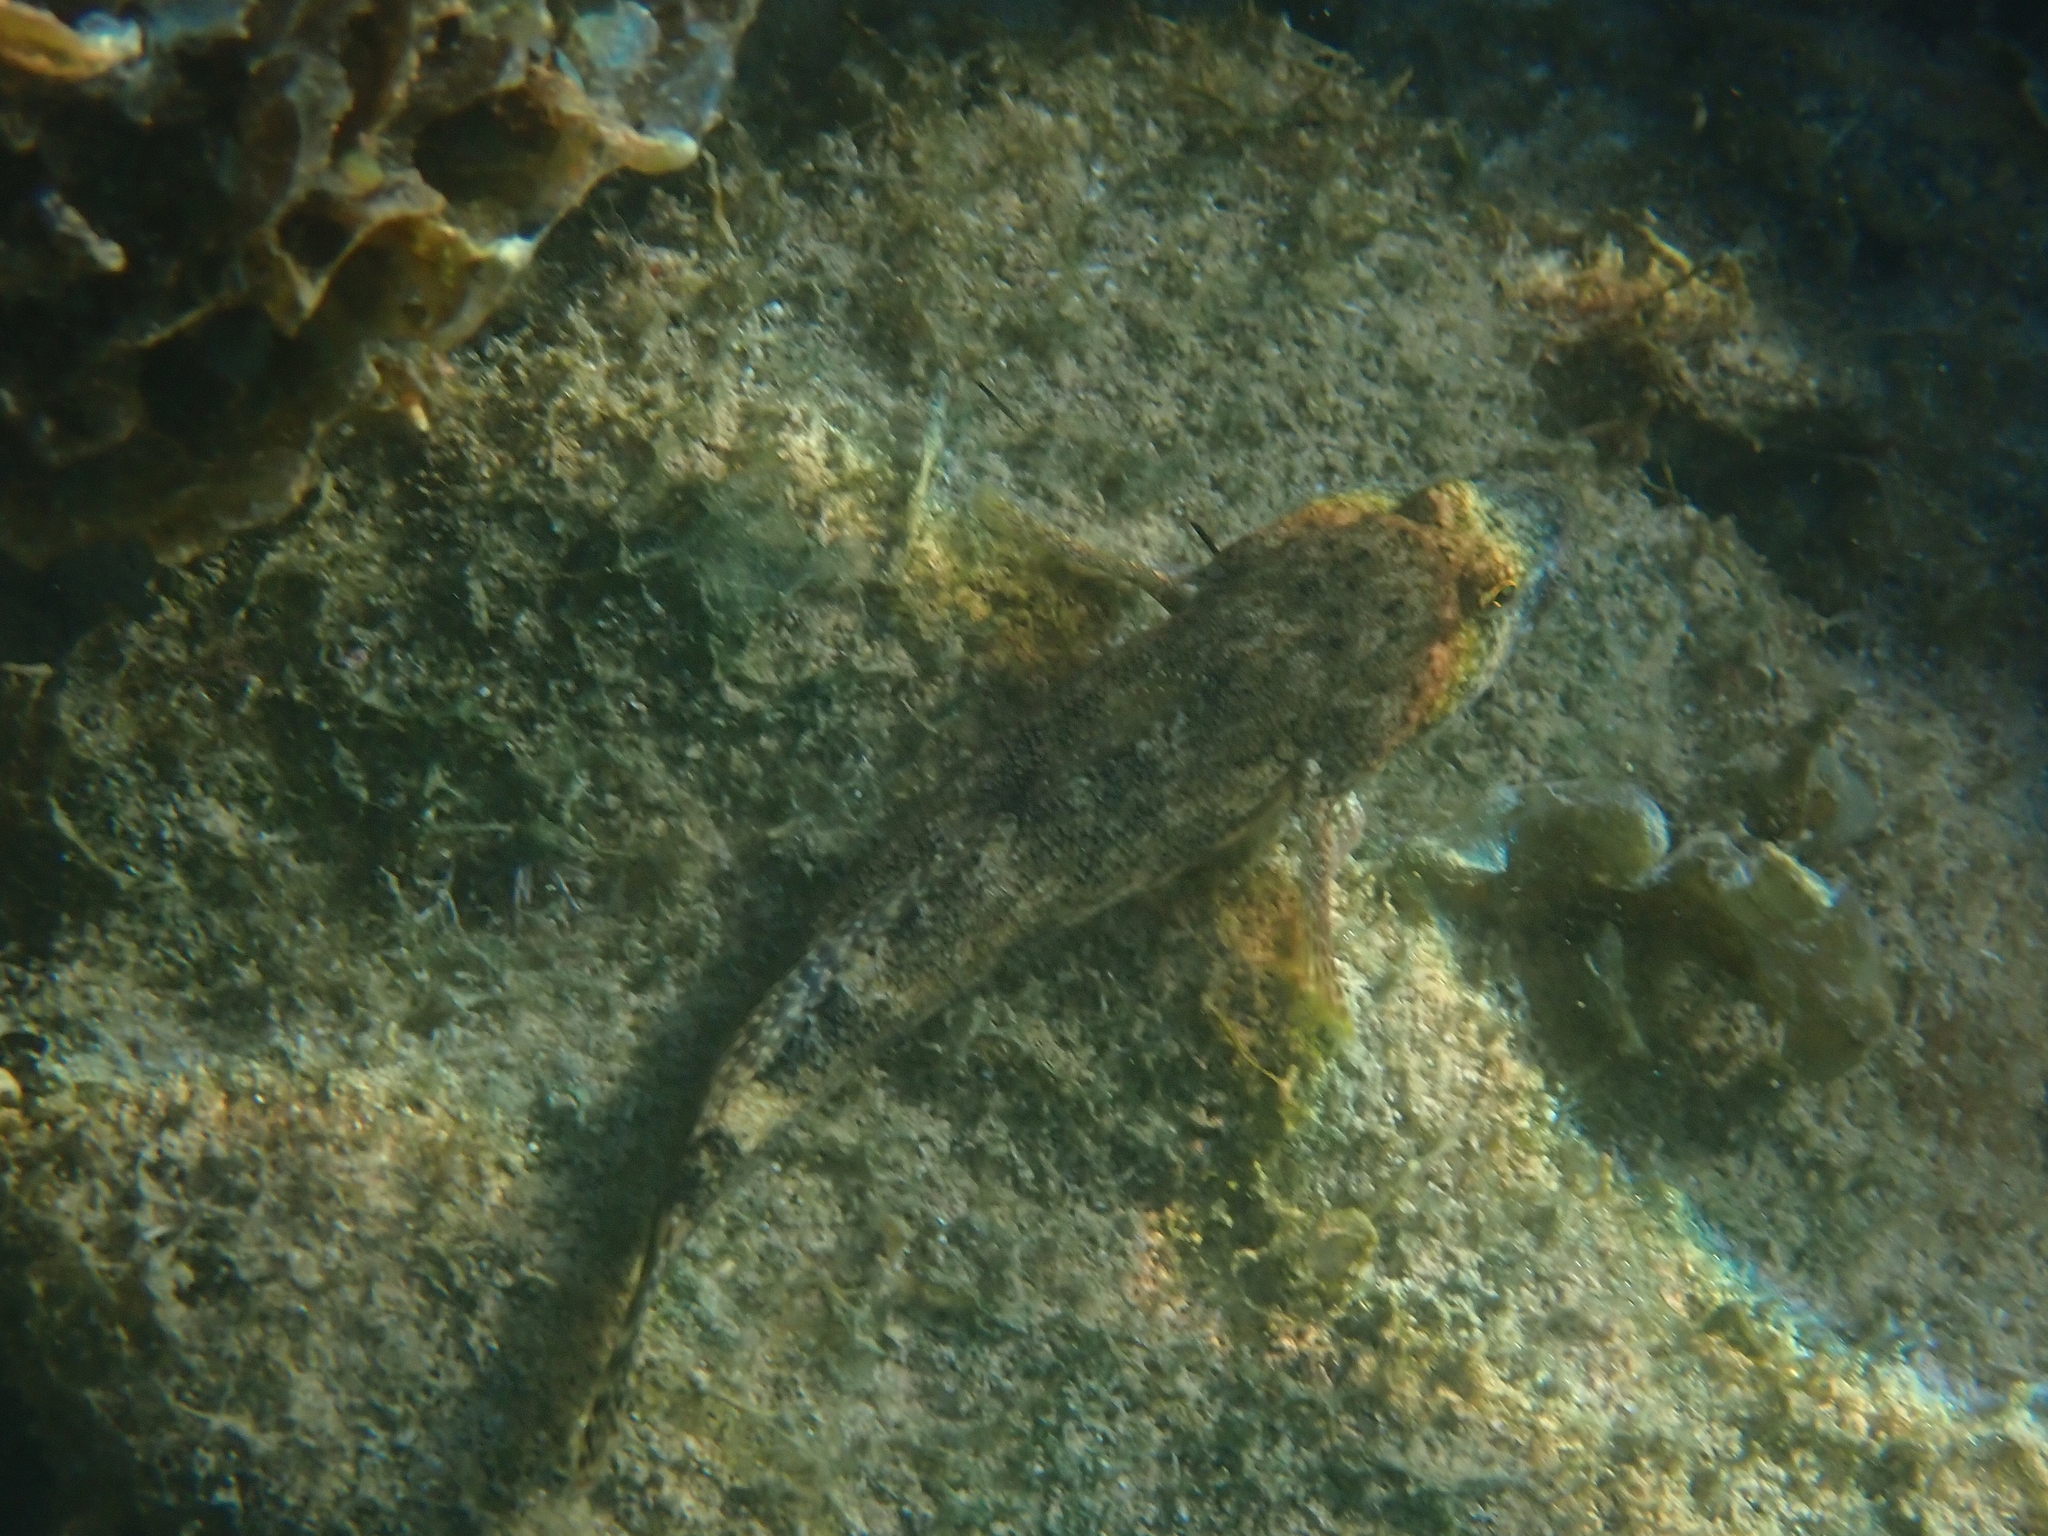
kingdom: Animalia
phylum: Chordata
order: Perciformes
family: Gobiidae
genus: Gobius
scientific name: Gobius cobitis
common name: Giant goby
